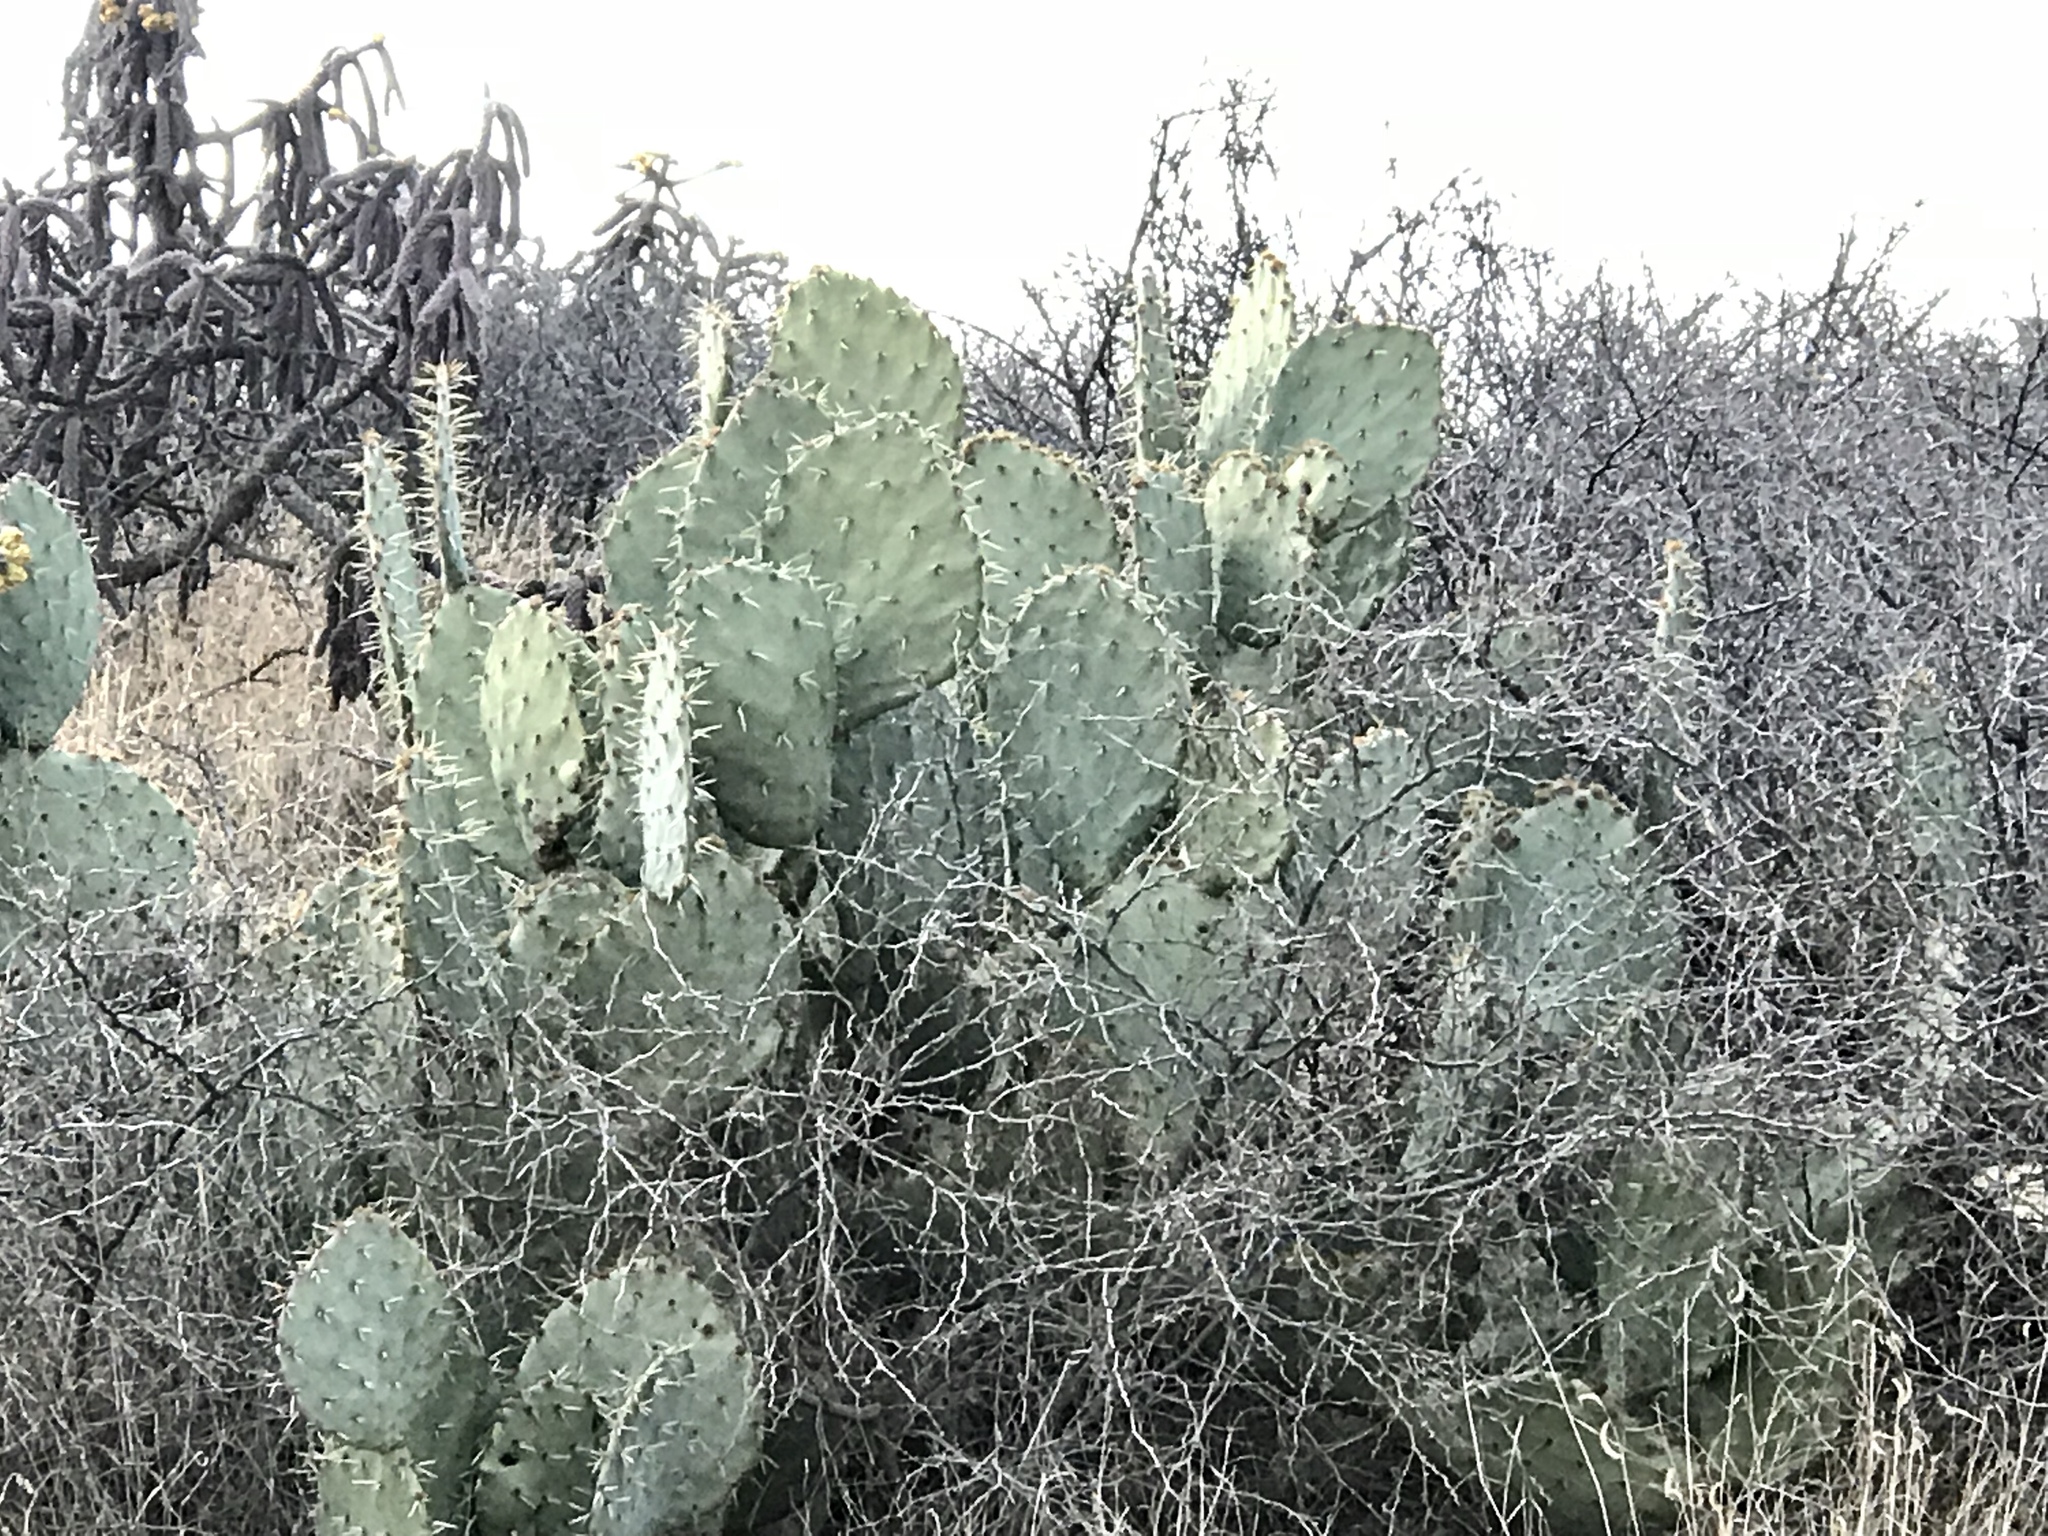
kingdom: Plantae
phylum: Tracheophyta
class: Magnoliopsida
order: Caryophyllales
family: Cactaceae
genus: Opuntia
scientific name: Opuntia engelmannii
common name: Cactus-apple
